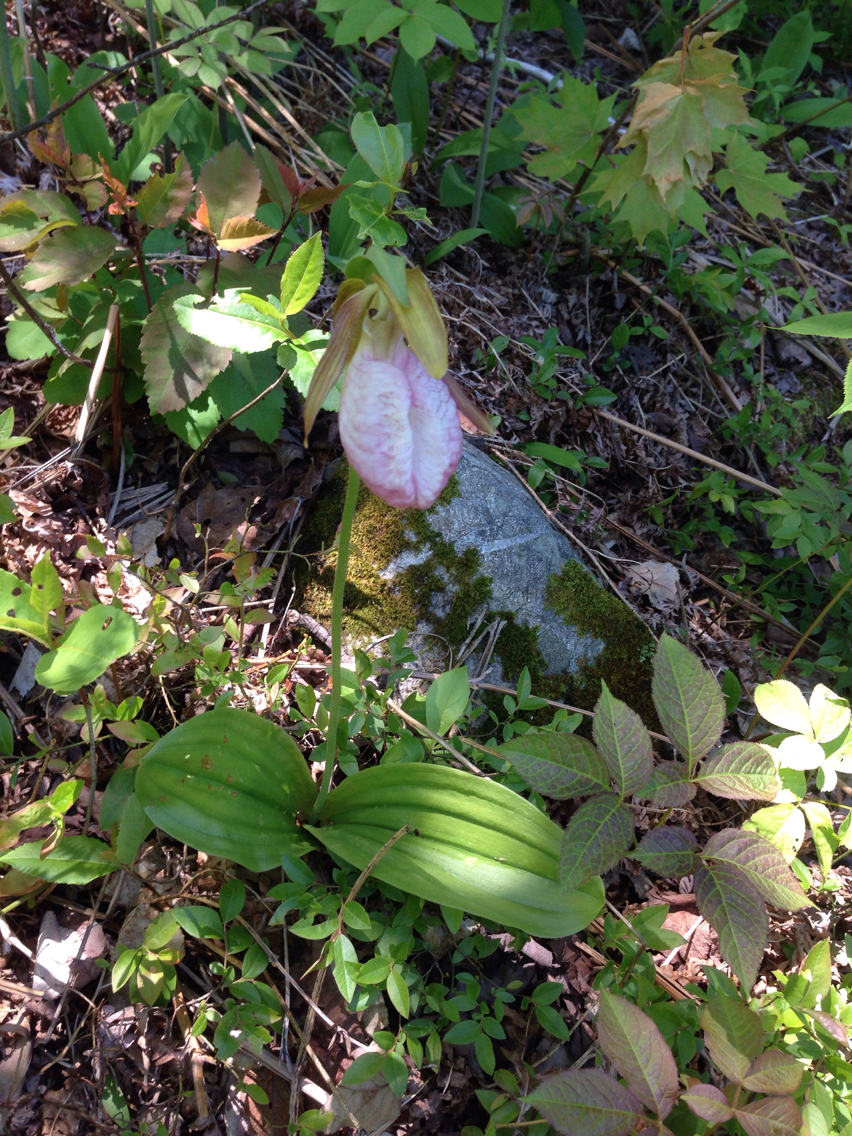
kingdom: Plantae
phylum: Tracheophyta
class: Liliopsida
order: Asparagales
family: Orchidaceae
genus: Cypripedium
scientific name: Cypripedium acaule
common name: Pink lady's-slipper
